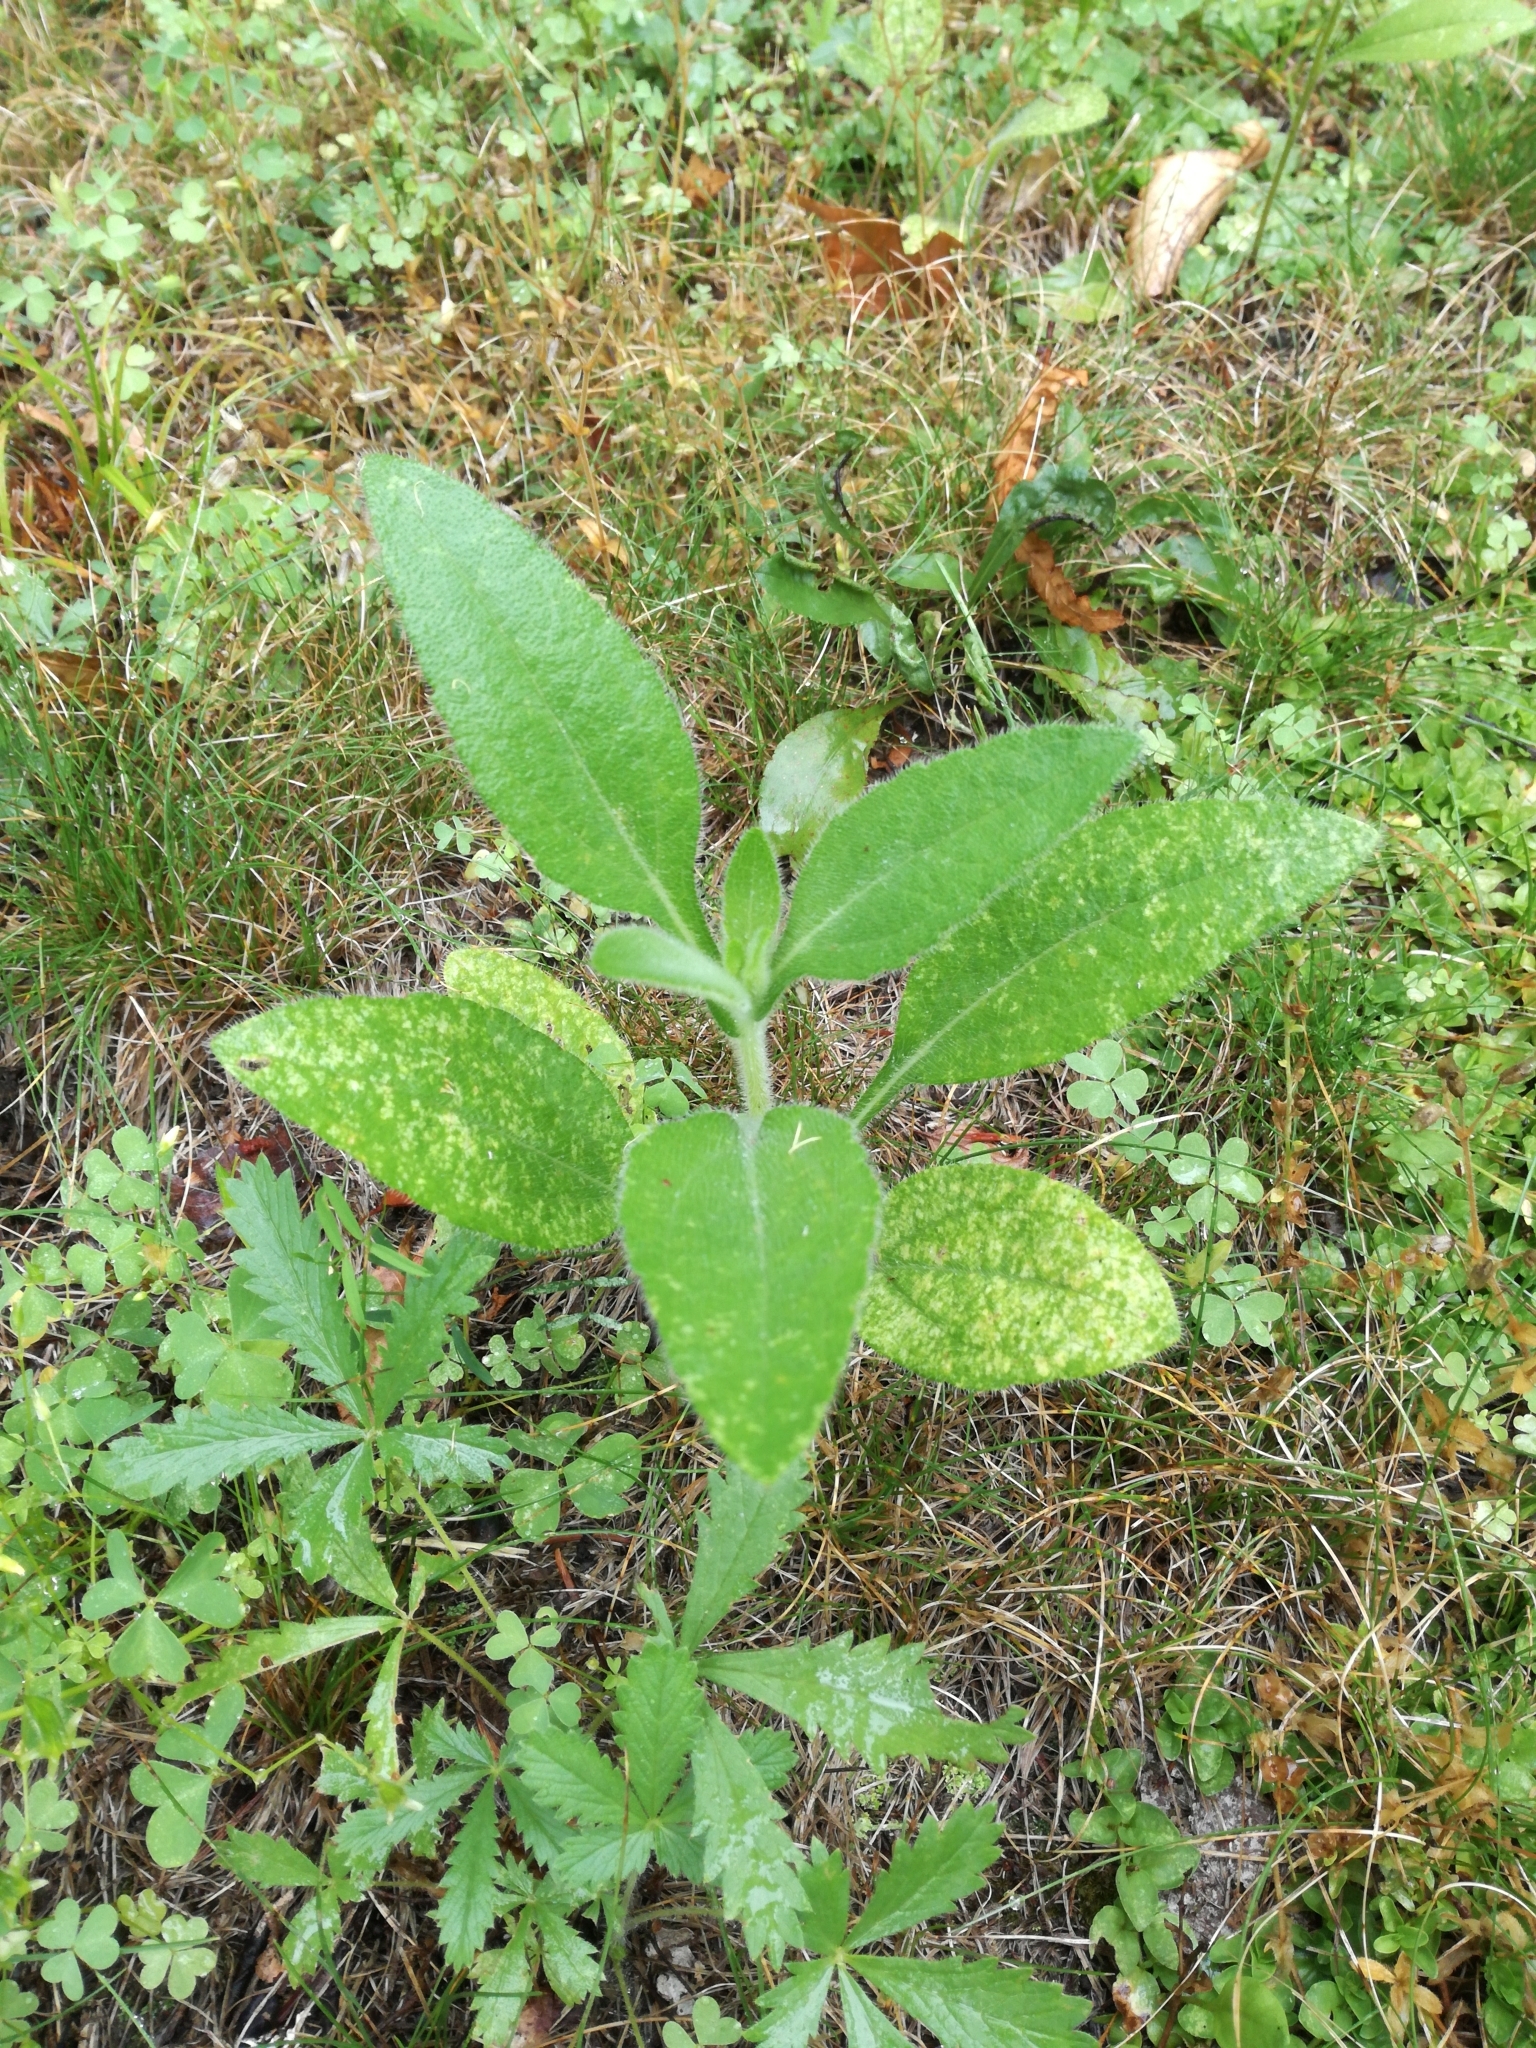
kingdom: Plantae
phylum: Tracheophyta
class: Magnoliopsida
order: Asterales
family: Asteraceae
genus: Rudbeckia
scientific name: Rudbeckia hirta
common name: Black-eyed-susan
